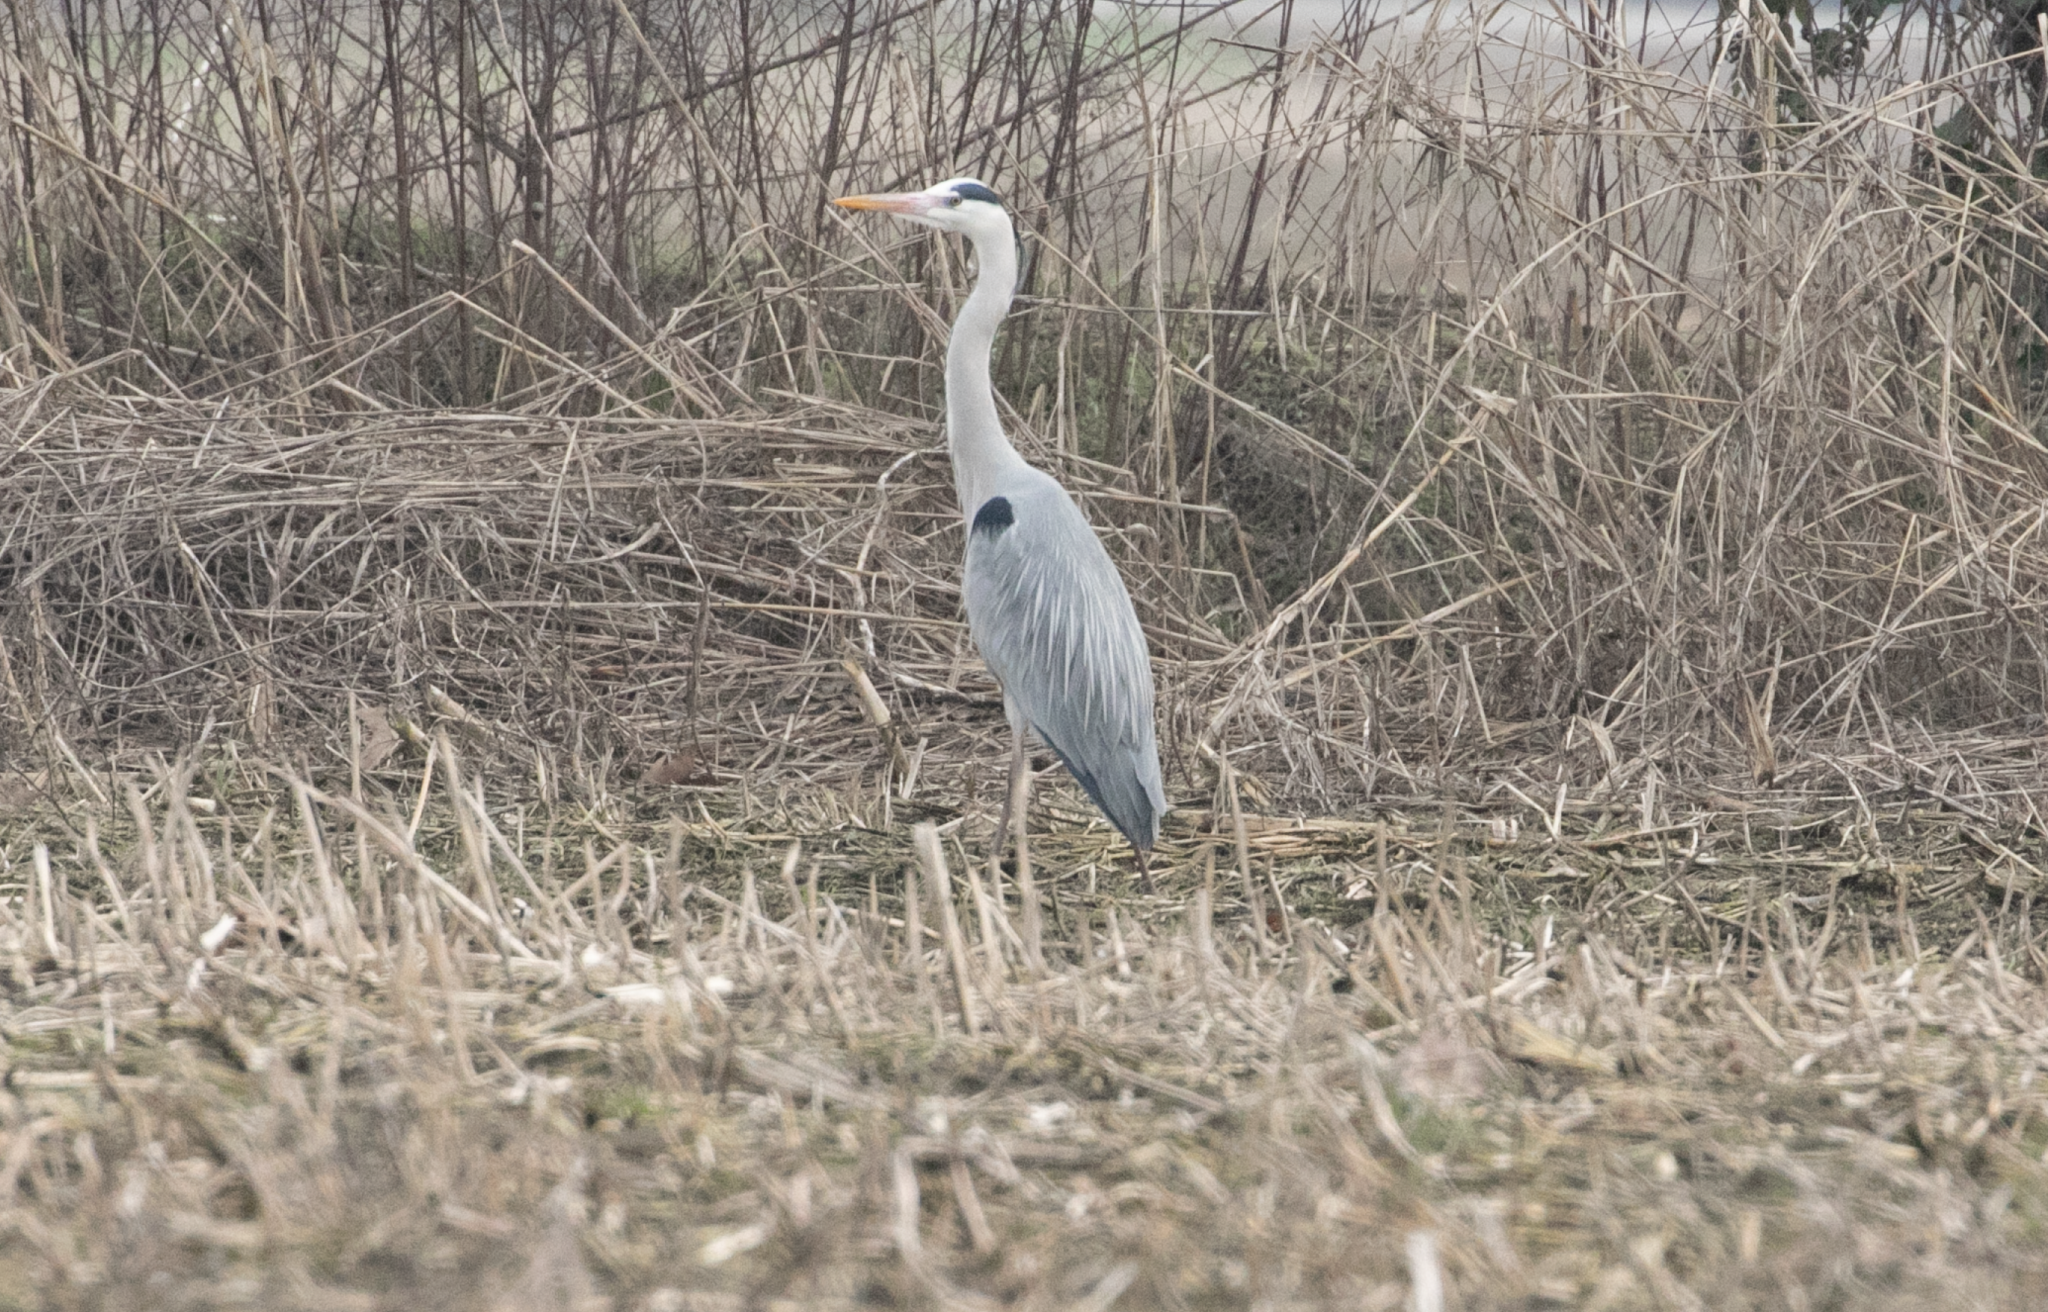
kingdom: Animalia
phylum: Chordata
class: Aves
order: Pelecaniformes
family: Ardeidae
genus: Ardea
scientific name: Ardea cinerea
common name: Grey heron
